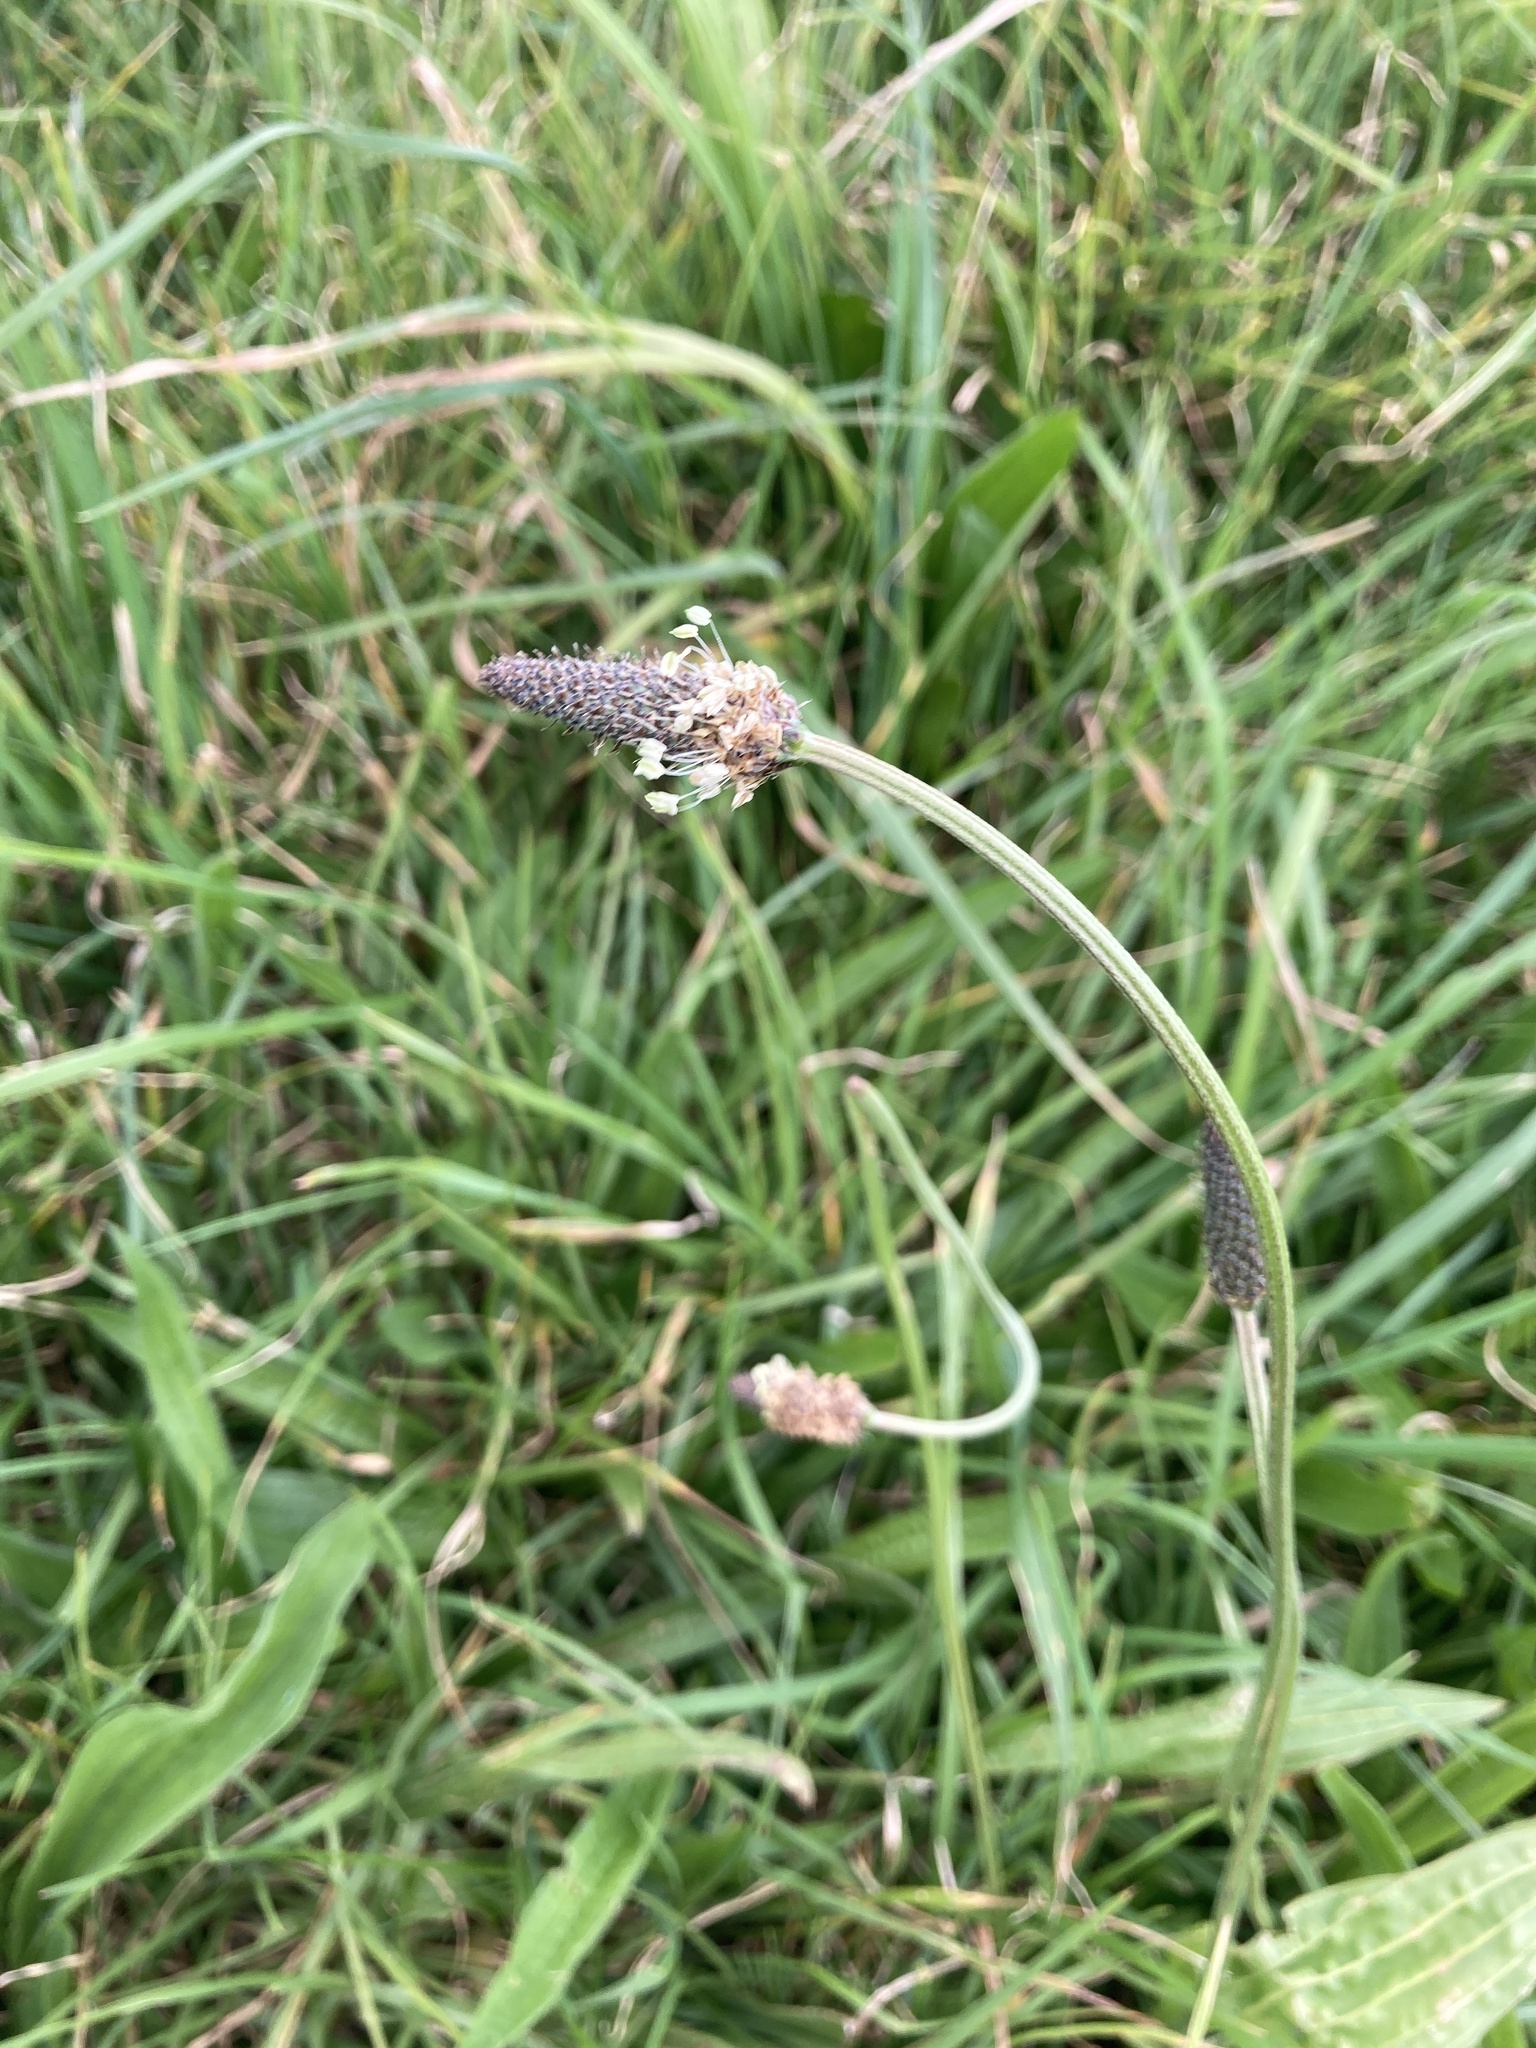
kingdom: Plantae
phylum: Tracheophyta
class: Magnoliopsida
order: Lamiales
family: Plantaginaceae
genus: Plantago
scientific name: Plantago lanceolata
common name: Ribwort plantain
